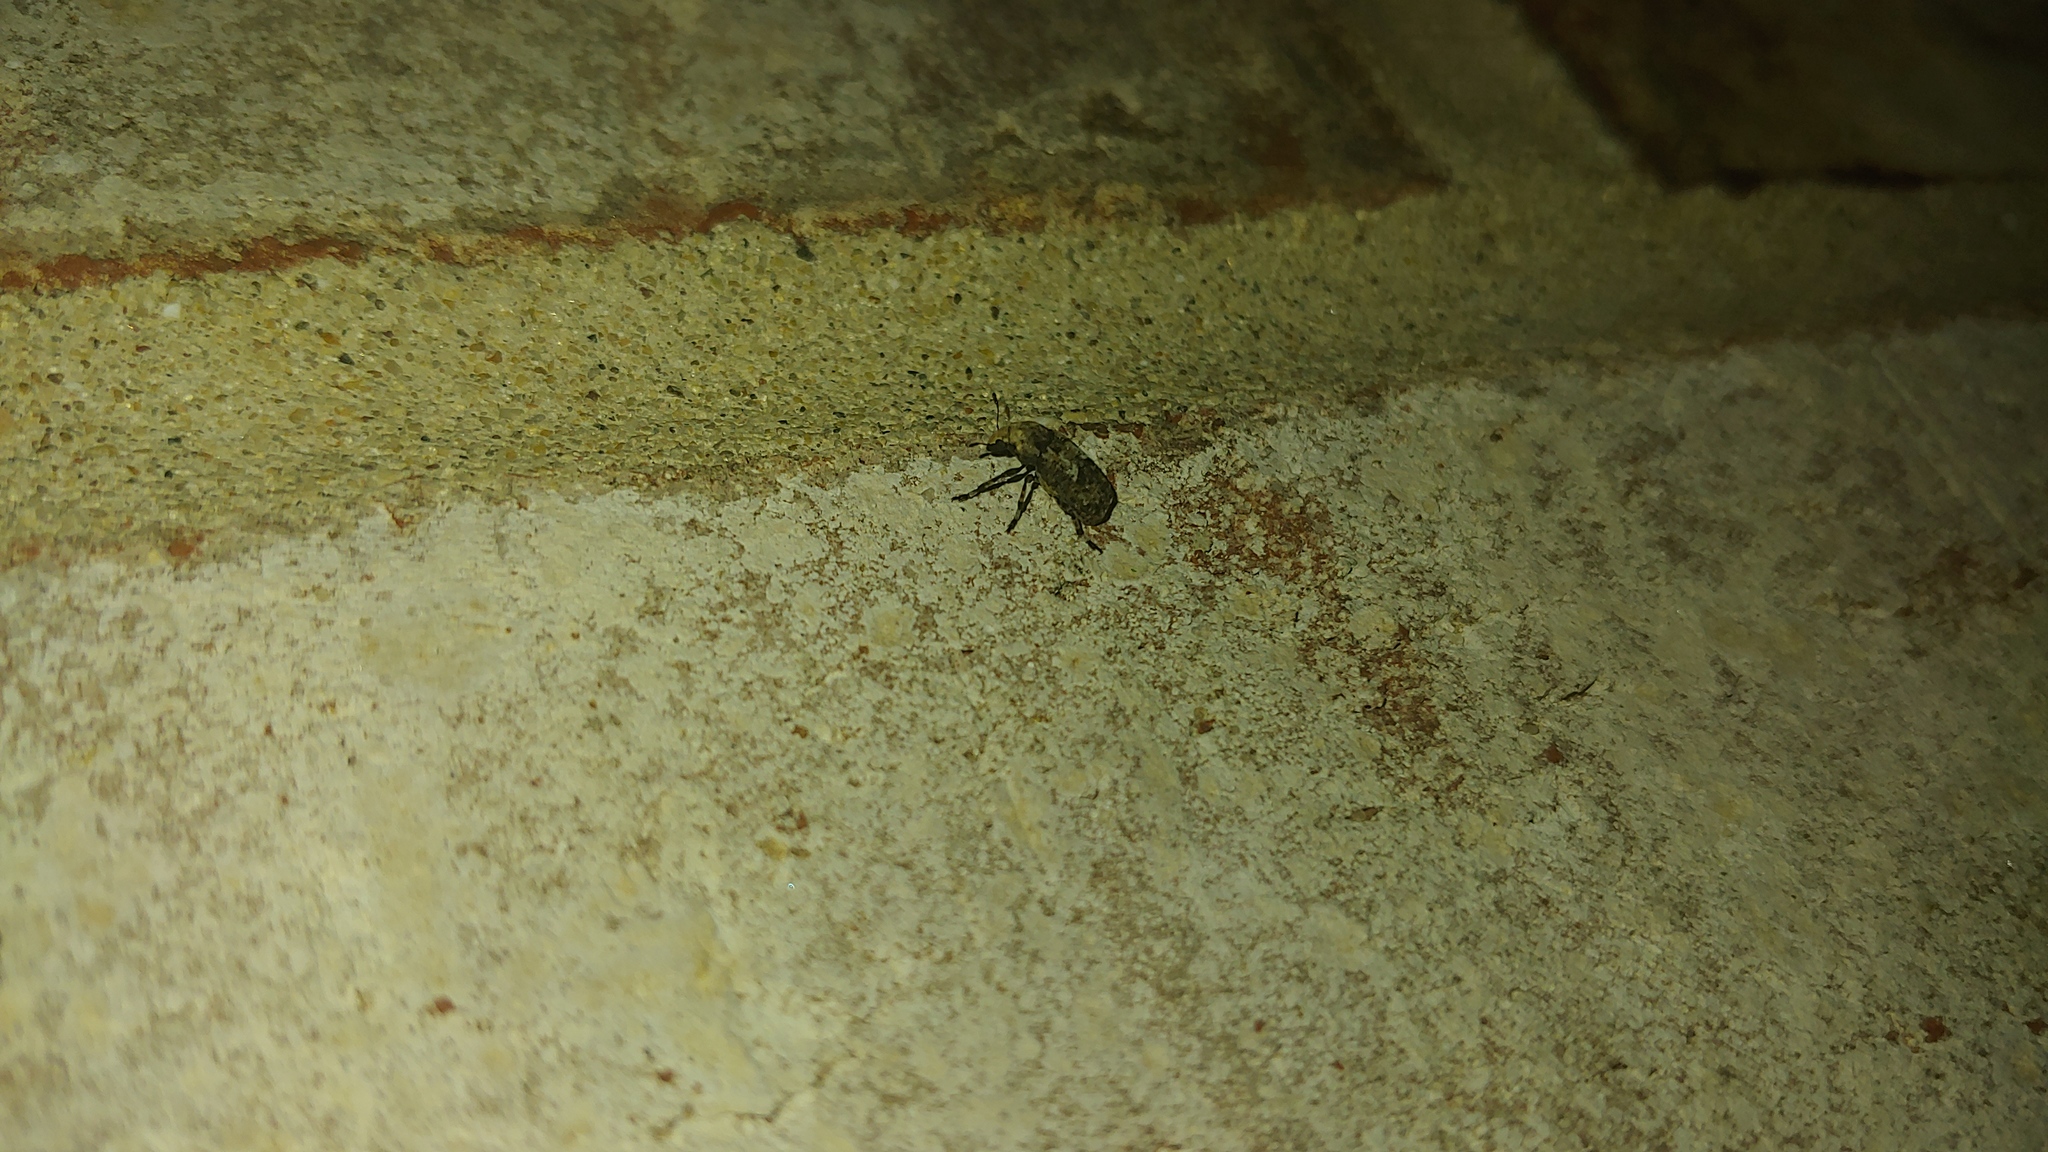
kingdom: Animalia
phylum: Arthropoda
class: Insecta
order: Coleoptera
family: Anthribidae
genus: Euparius
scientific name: Euparius marmoreus
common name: Marbled fungus weevil
